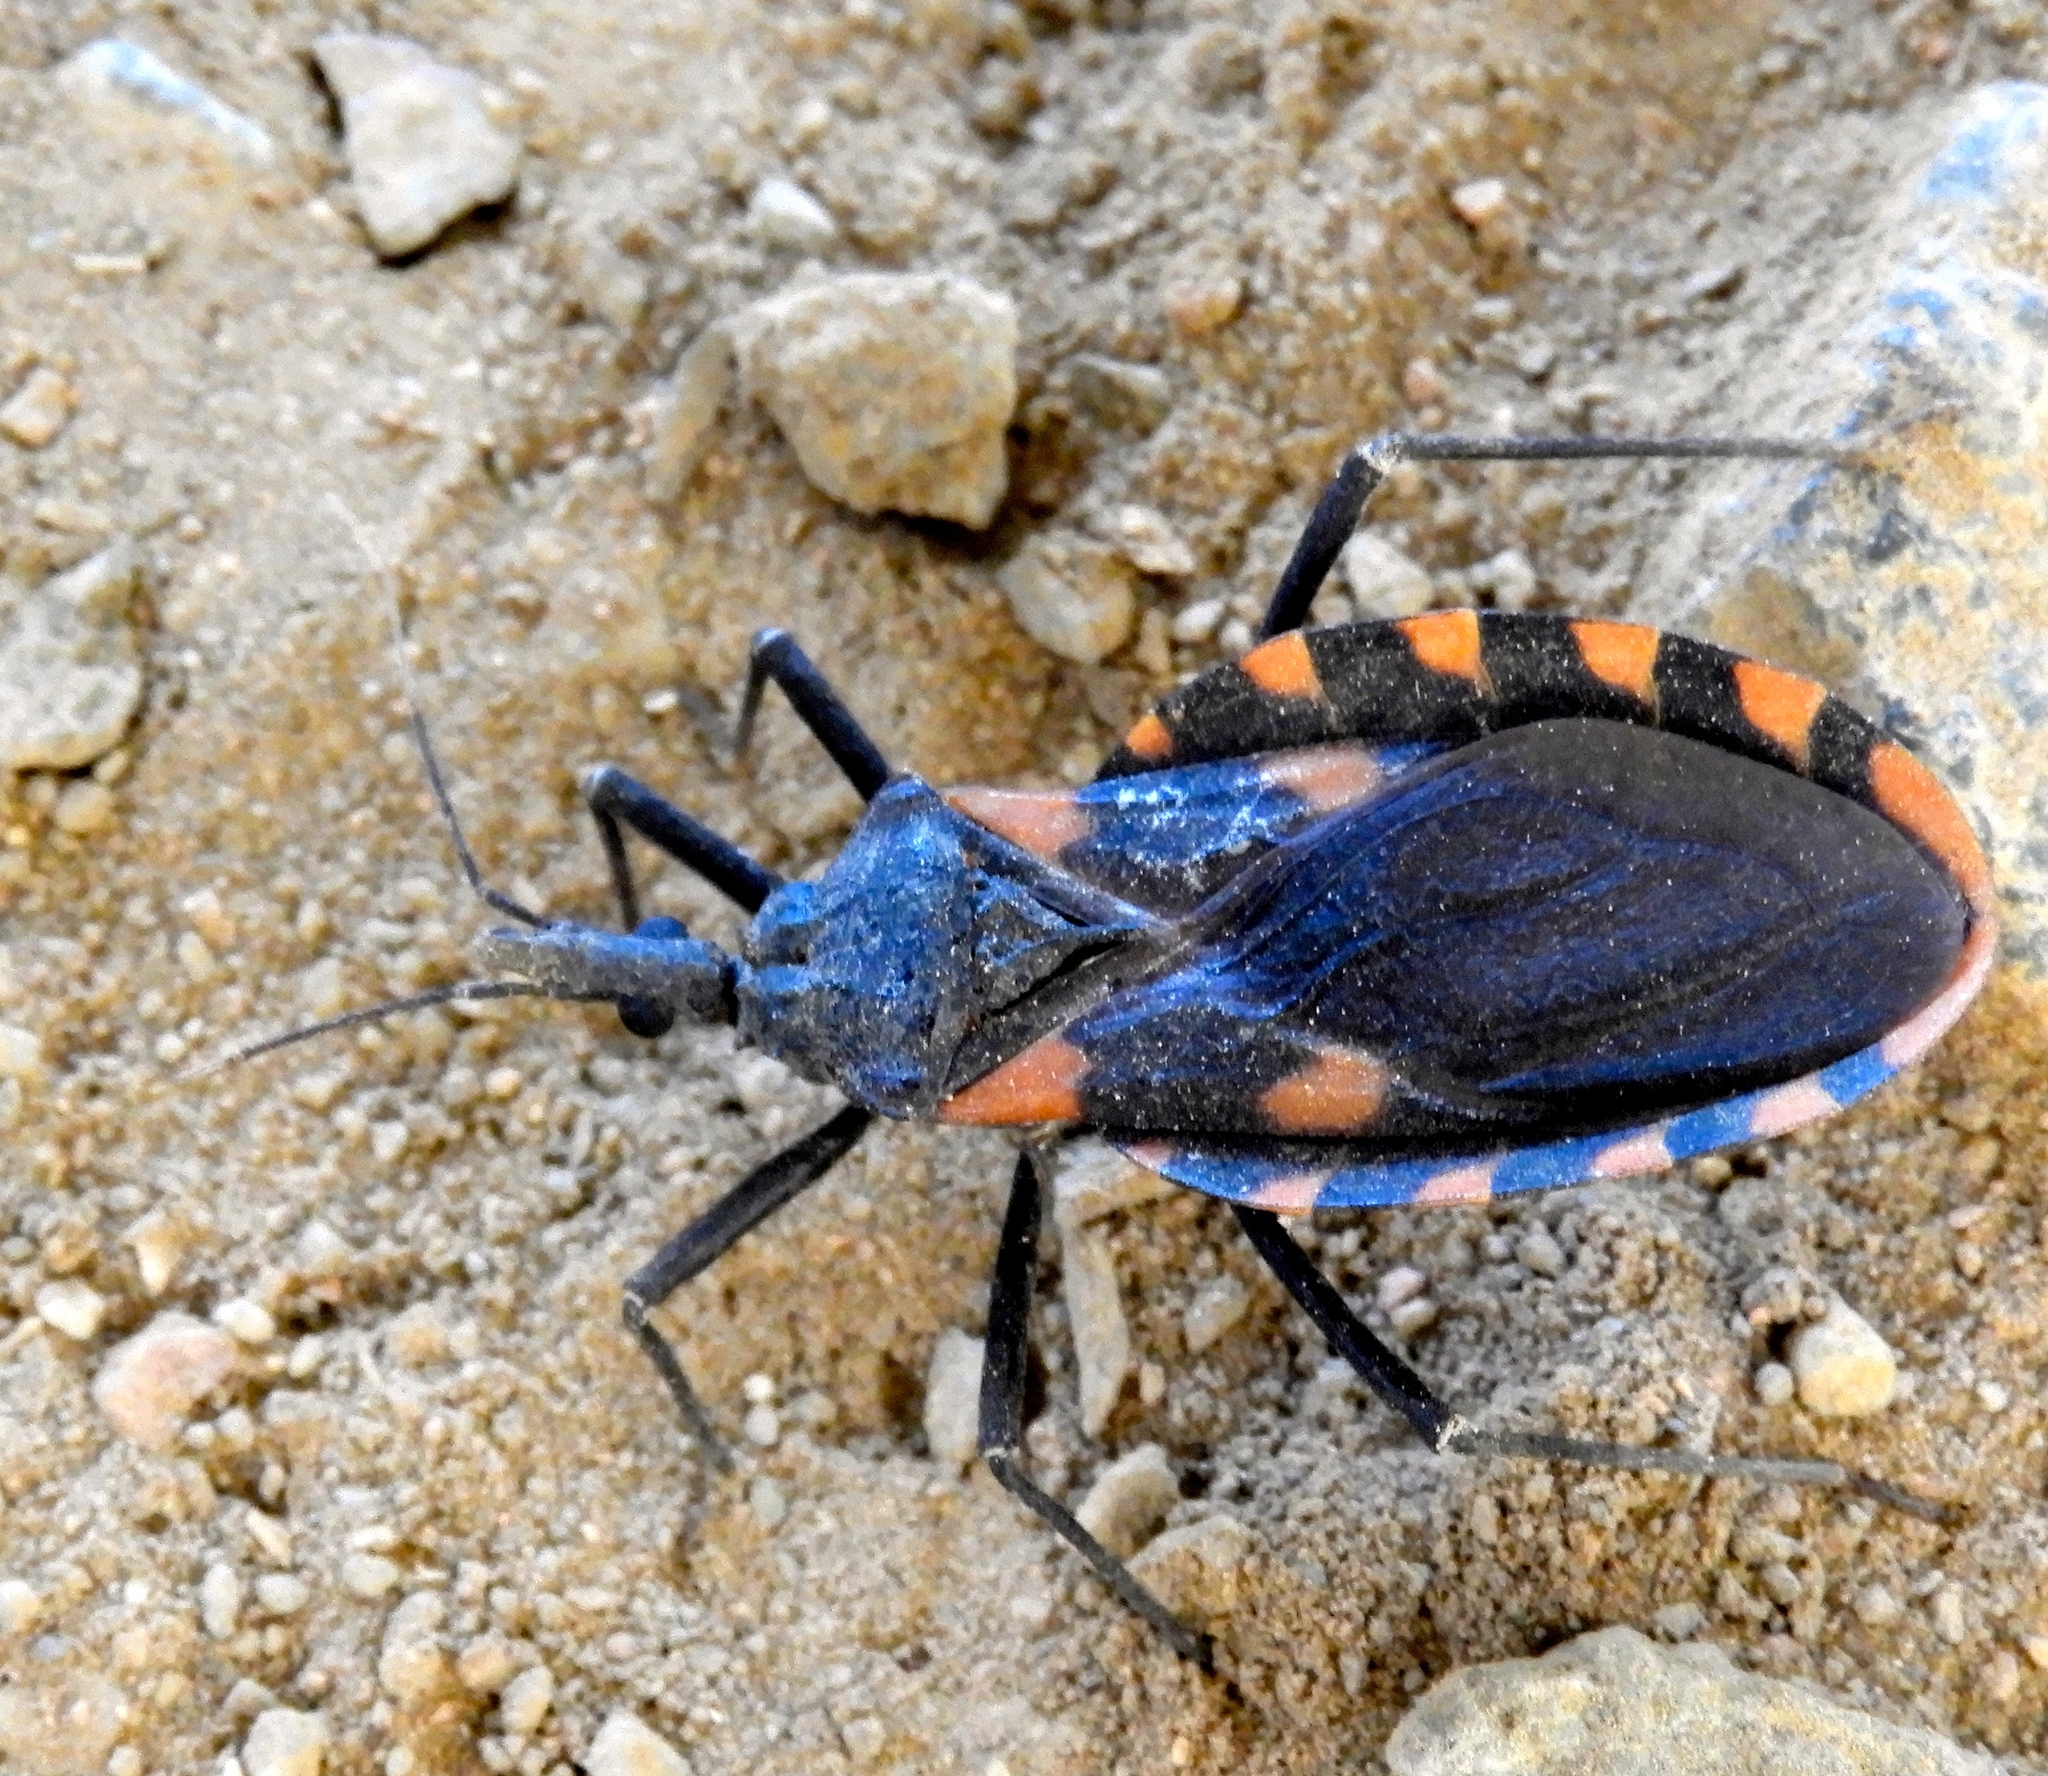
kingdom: Animalia
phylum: Arthropoda
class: Insecta
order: Hemiptera
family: Reduviidae
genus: Meccus
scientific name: Meccus longipennis
